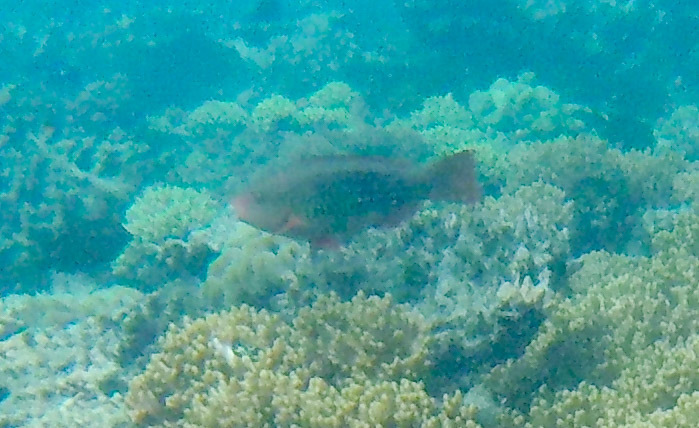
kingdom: Animalia
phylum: Chordata
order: Perciformes
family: Scaridae
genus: Scarus
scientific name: Scarus frenatus
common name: Bridled parrotfish
